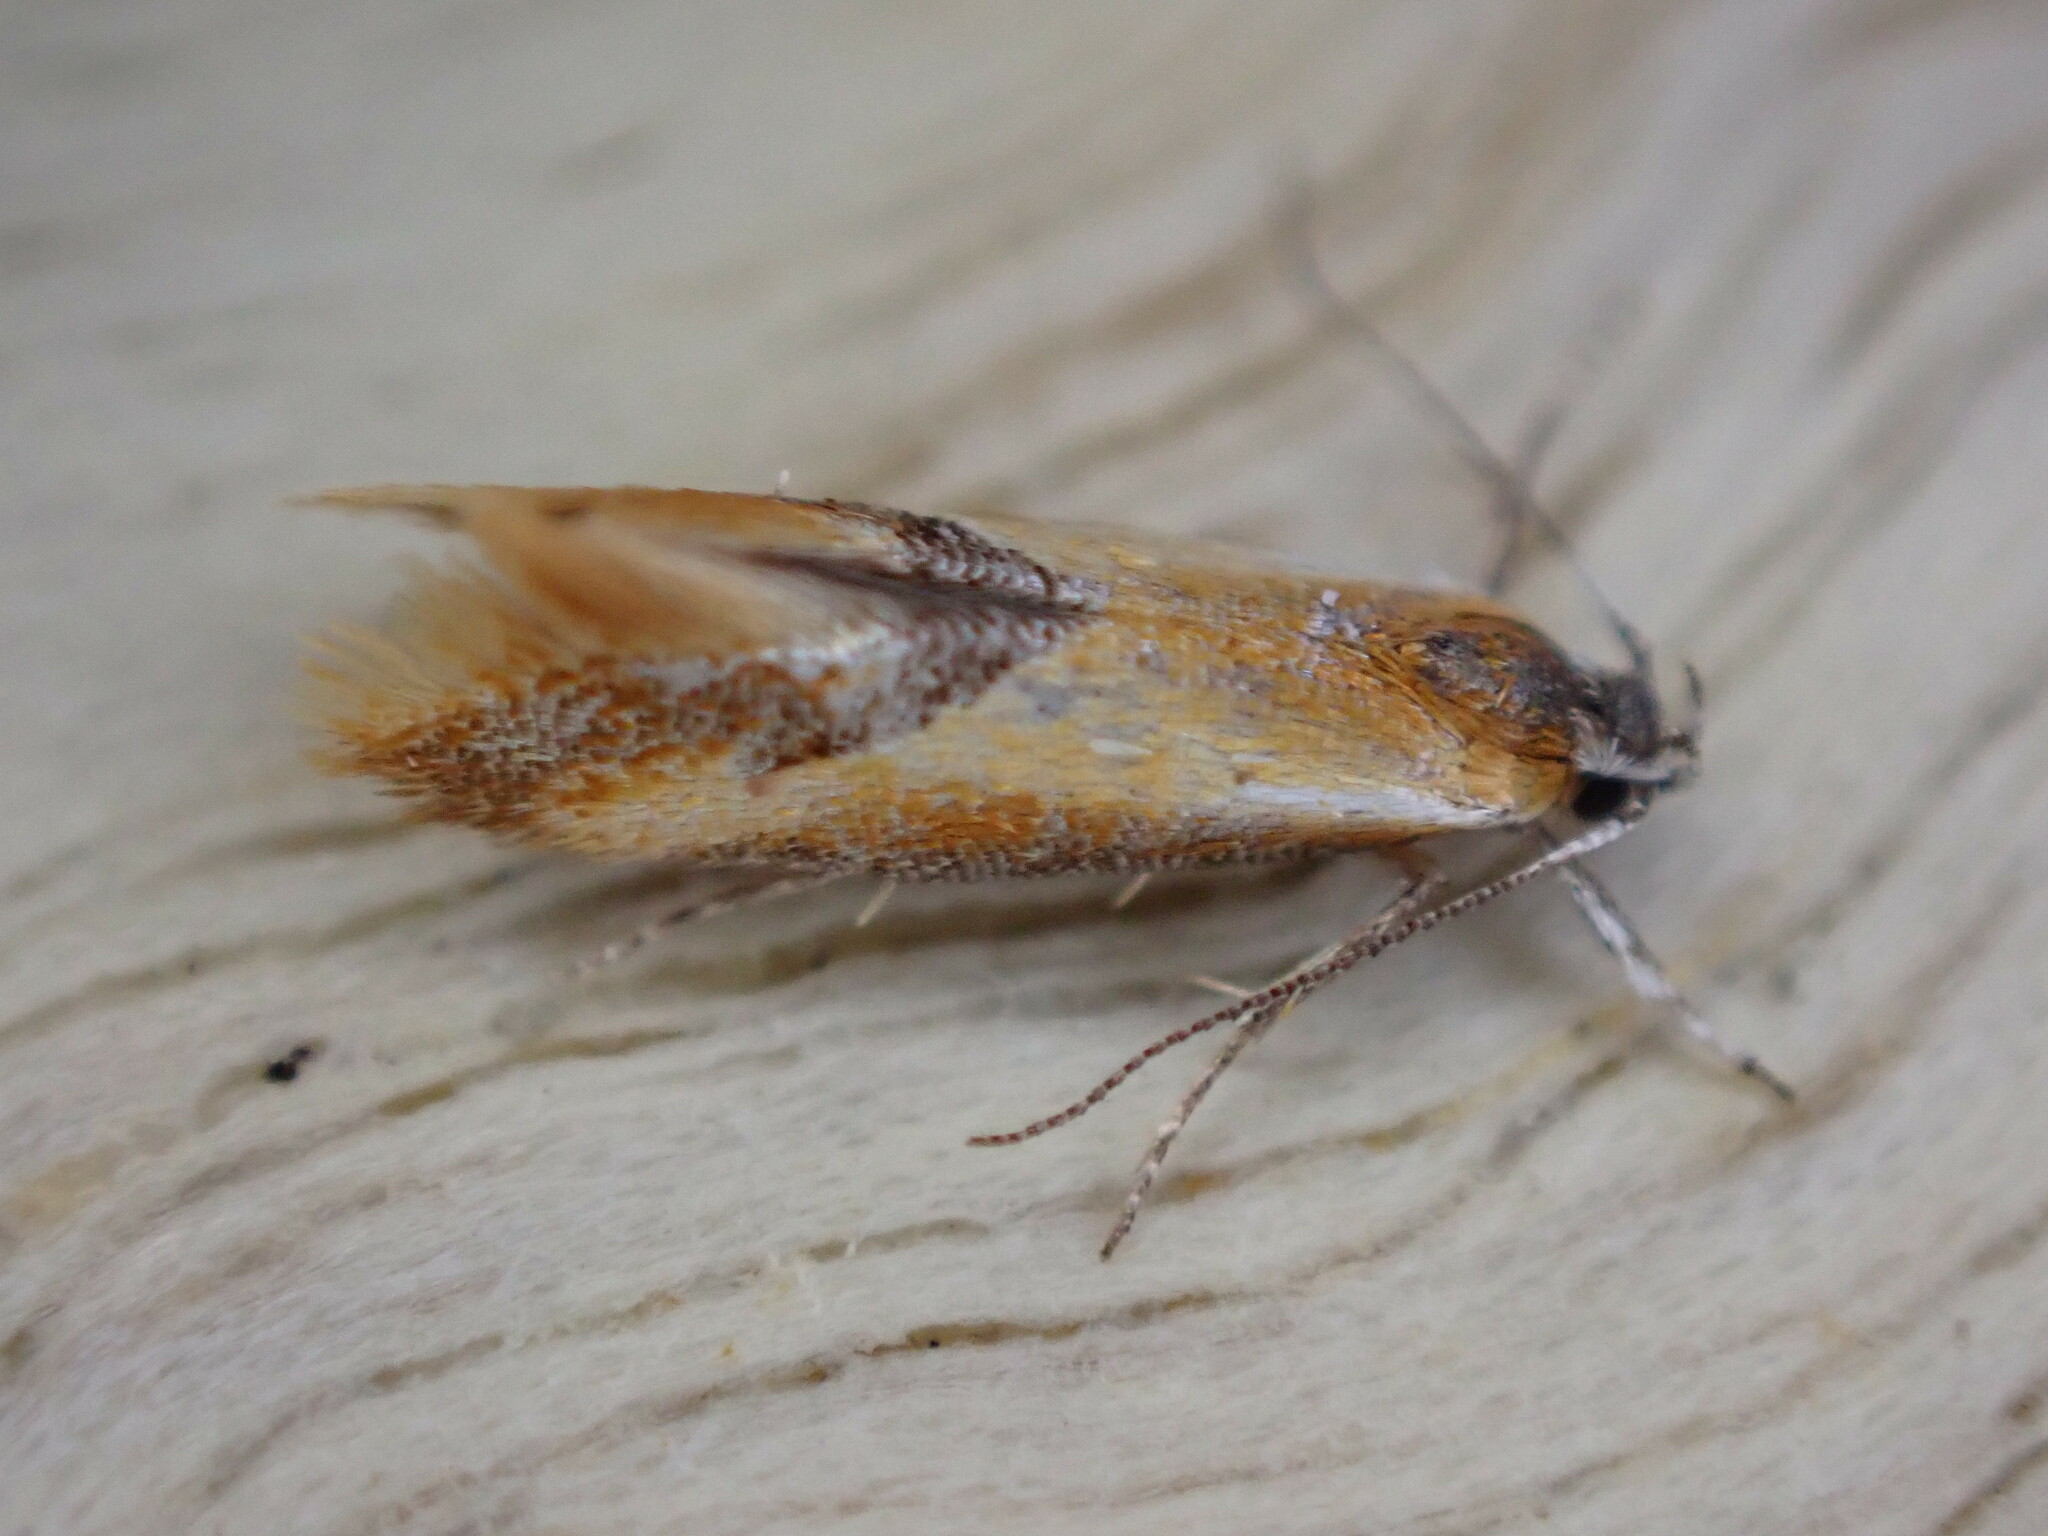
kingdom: Animalia
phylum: Arthropoda
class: Insecta
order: Lepidoptera
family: Oecophoridae
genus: Batia
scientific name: Batia lunaris
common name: Moth
